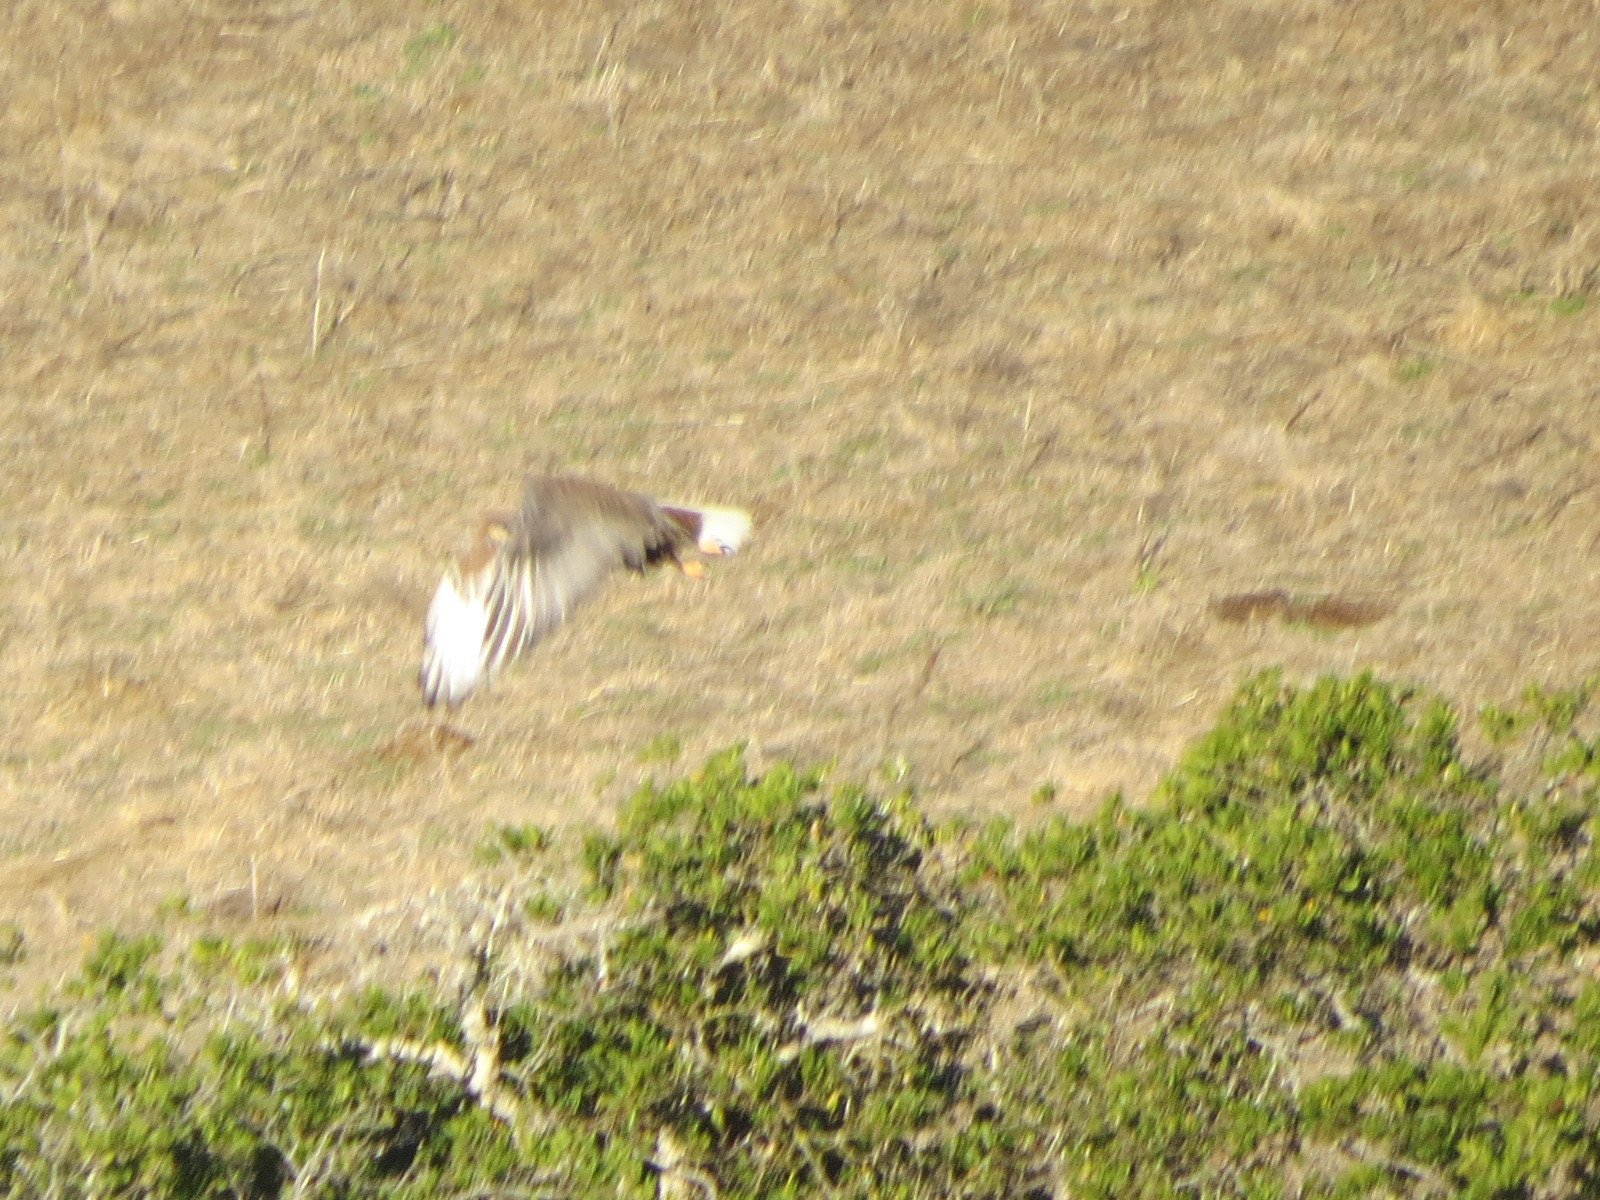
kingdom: Animalia
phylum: Chordata
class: Aves
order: Accipitriformes
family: Accipitridae
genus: Buteo
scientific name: Buteo regalis
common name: Ferruginous hawk
